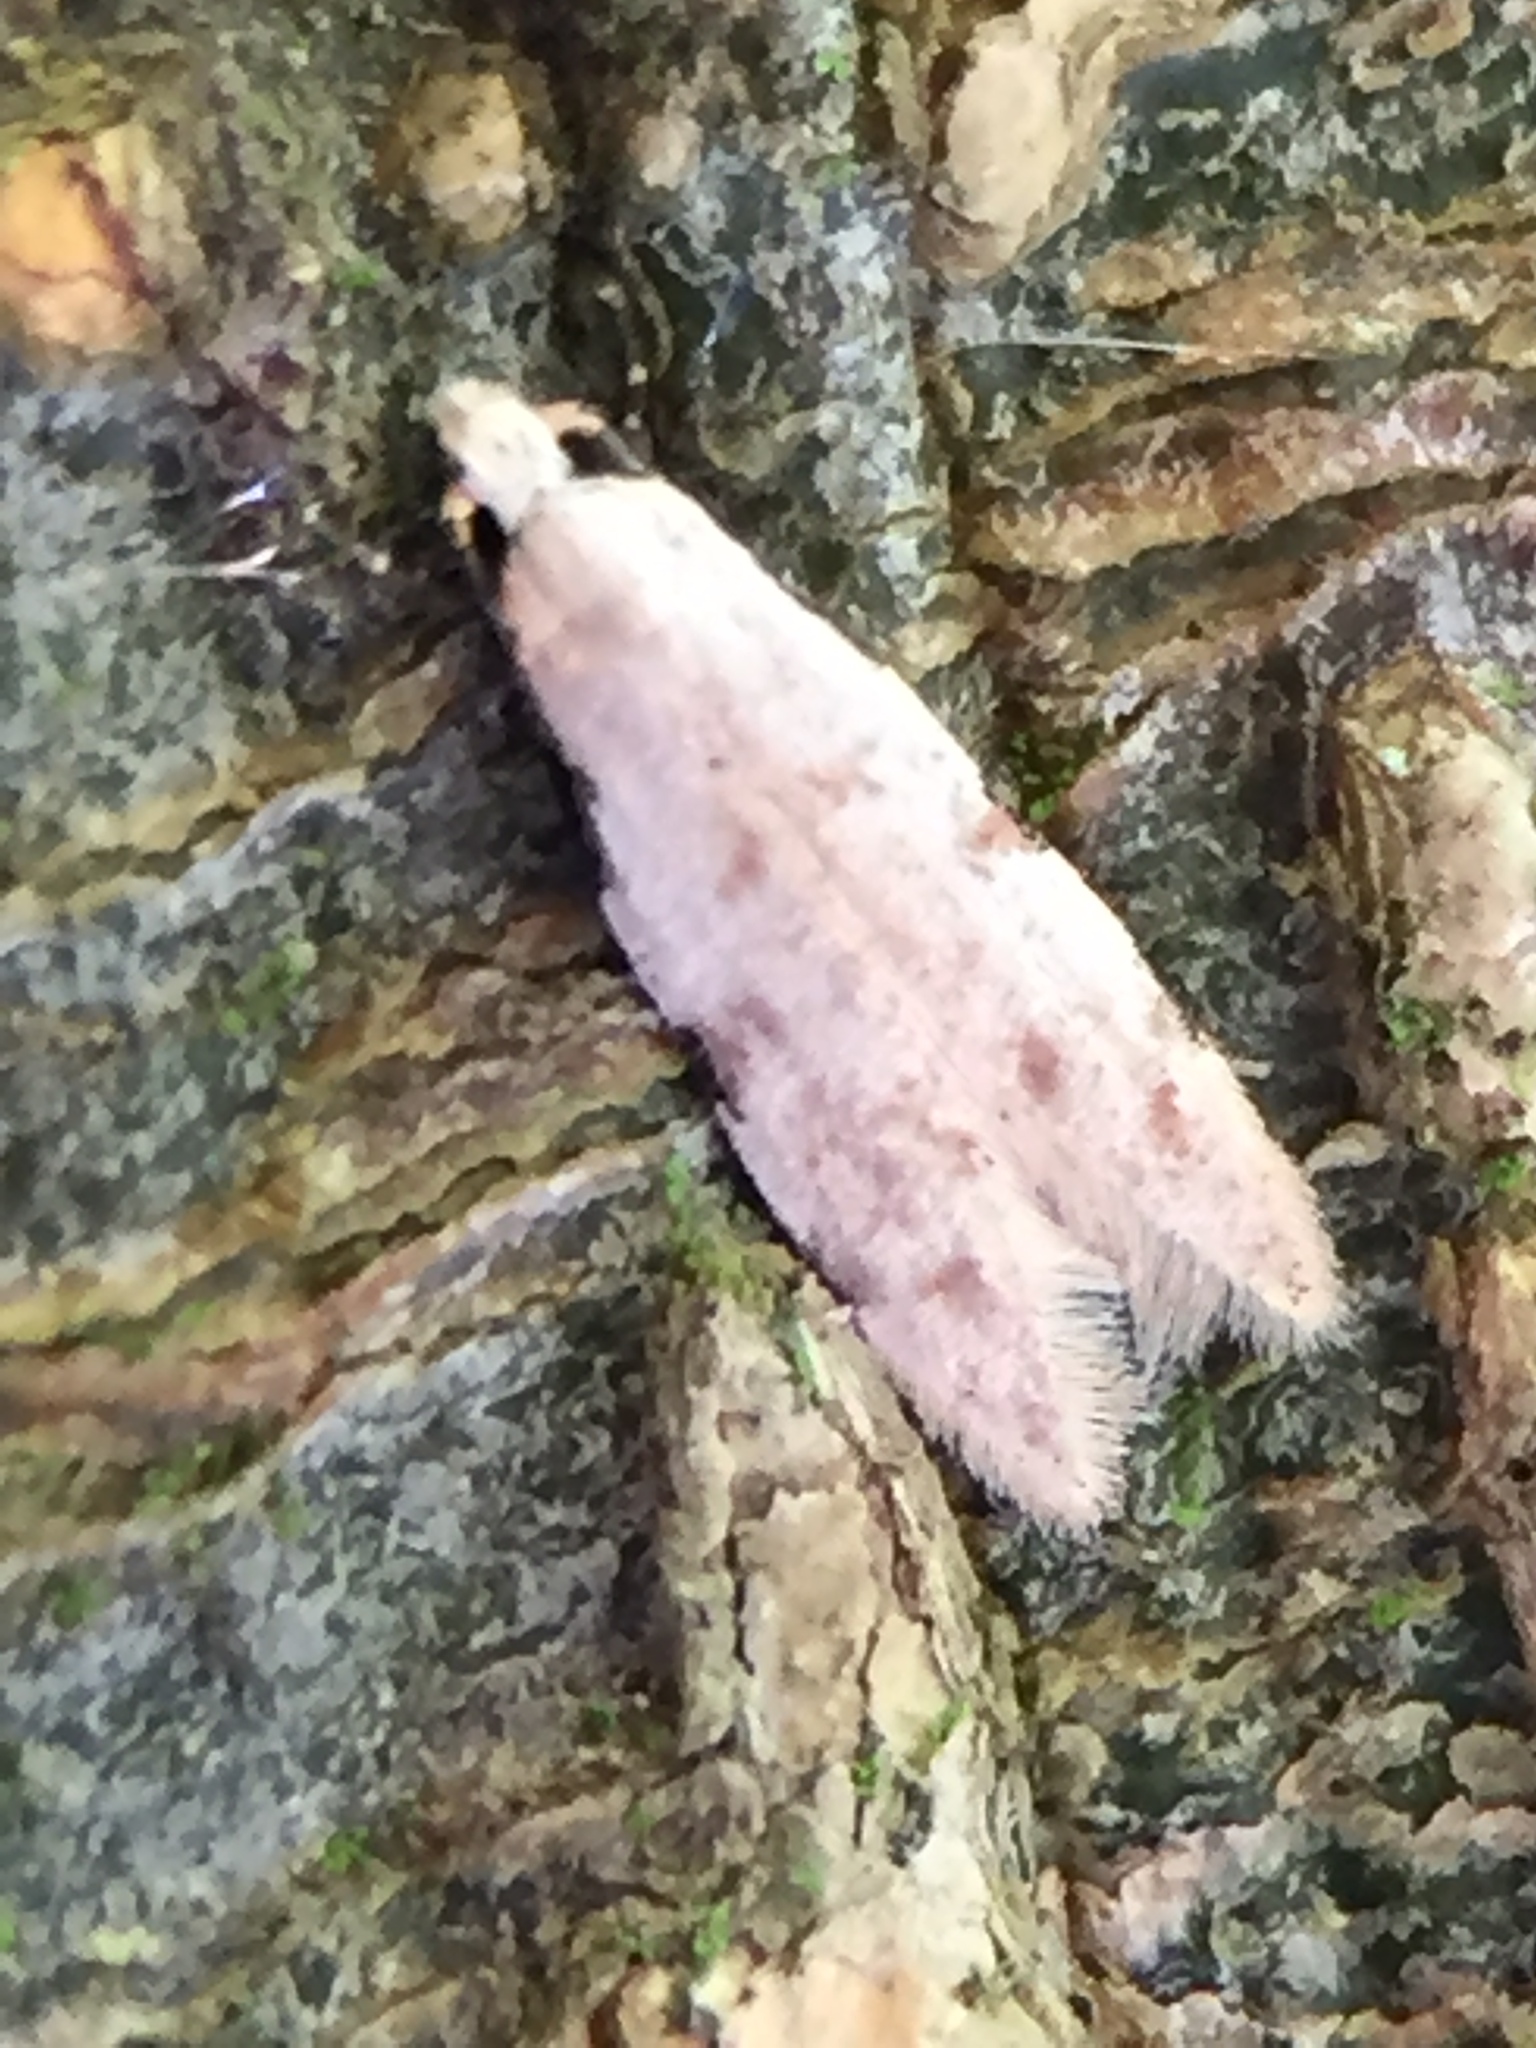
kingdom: Animalia
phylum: Arthropoda
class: Insecta
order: Lepidoptera
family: Tineidae
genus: Endophthora
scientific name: Endophthora omogramma
